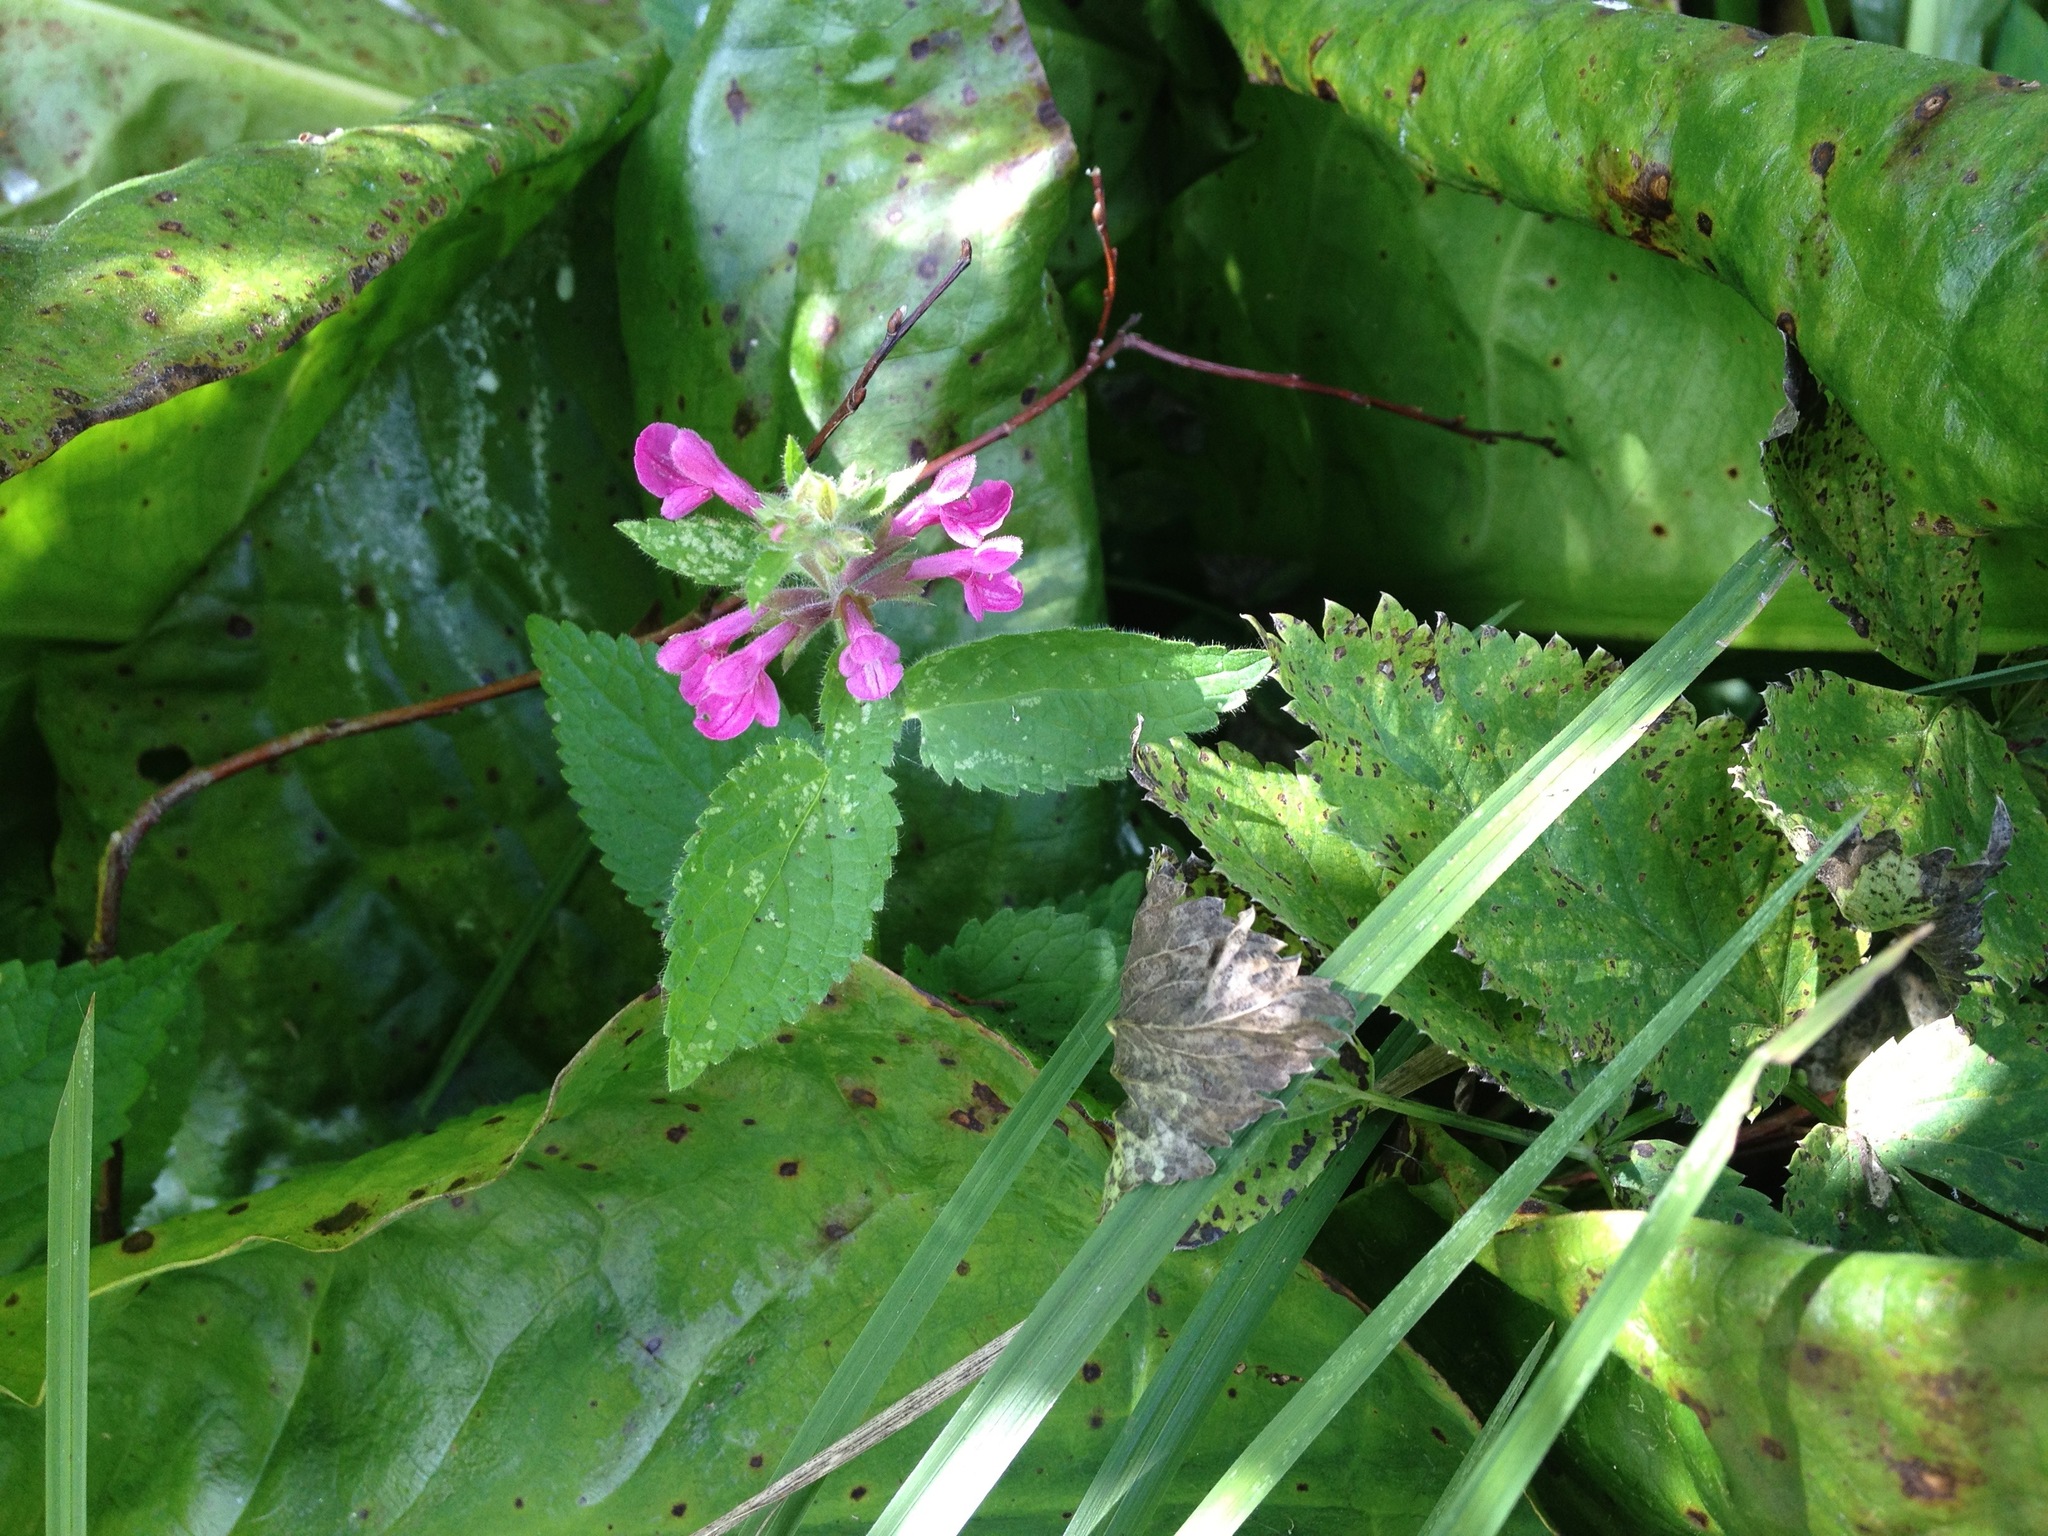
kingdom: Plantae
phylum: Tracheophyta
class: Magnoliopsida
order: Lamiales
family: Lamiaceae
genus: Stachys
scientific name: Stachys chamissonis
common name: Coastal hedge-nettle
